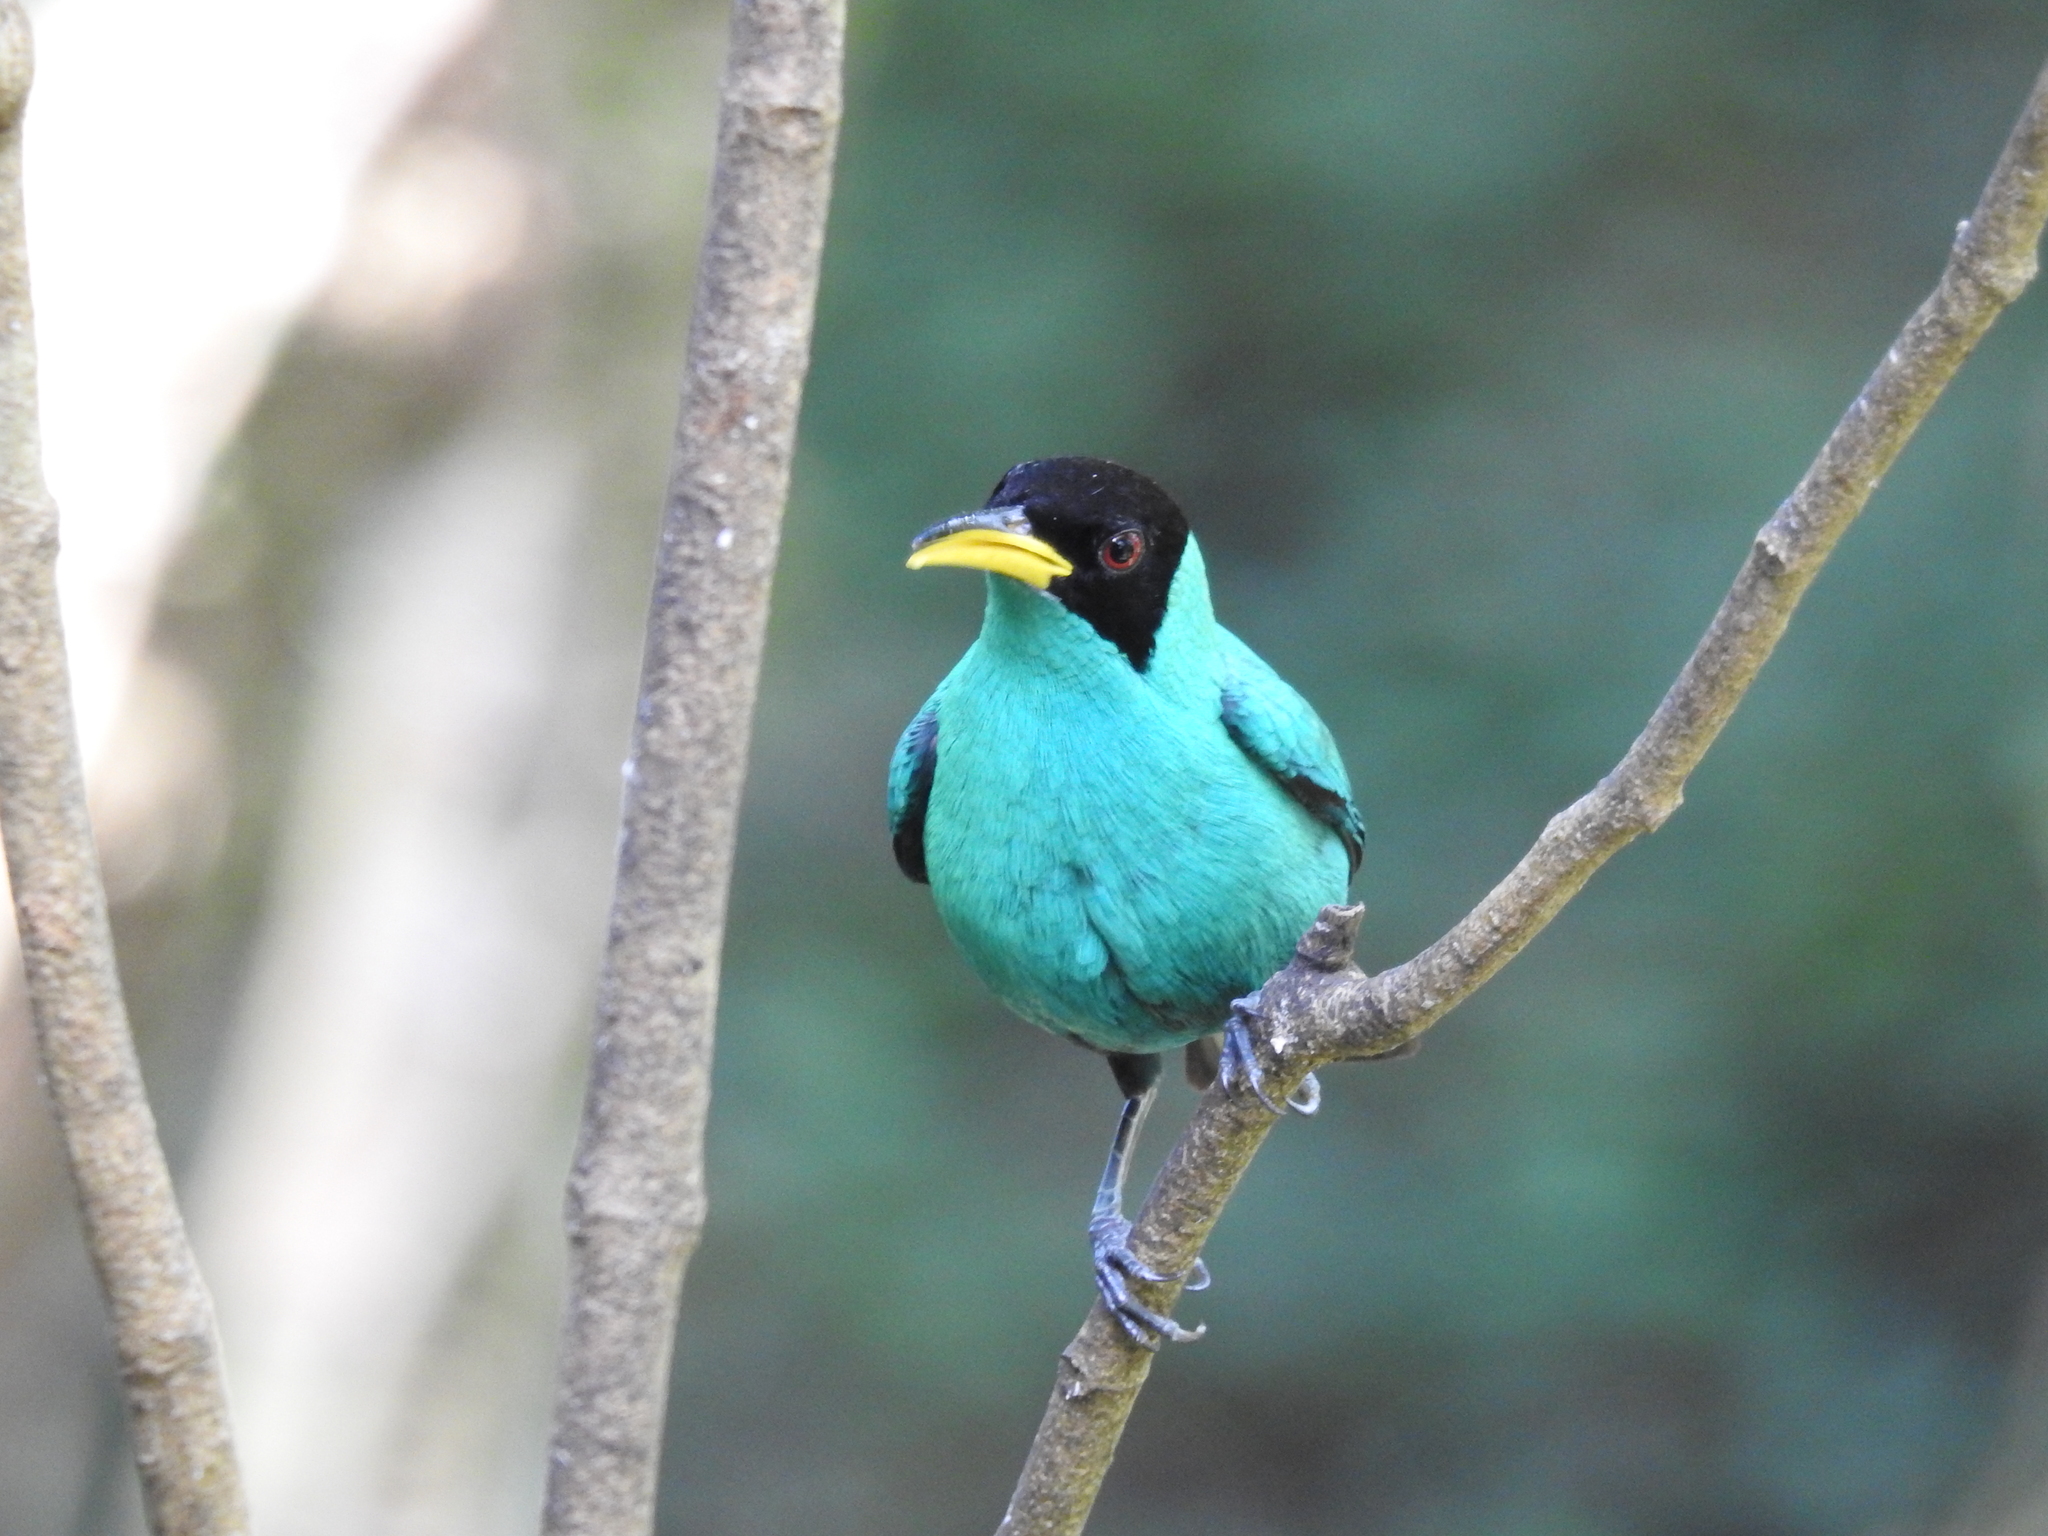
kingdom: Animalia
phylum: Chordata
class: Aves
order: Passeriformes
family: Thraupidae
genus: Chlorophanes
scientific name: Chlorophanes spiza
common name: Green honeycreeper
